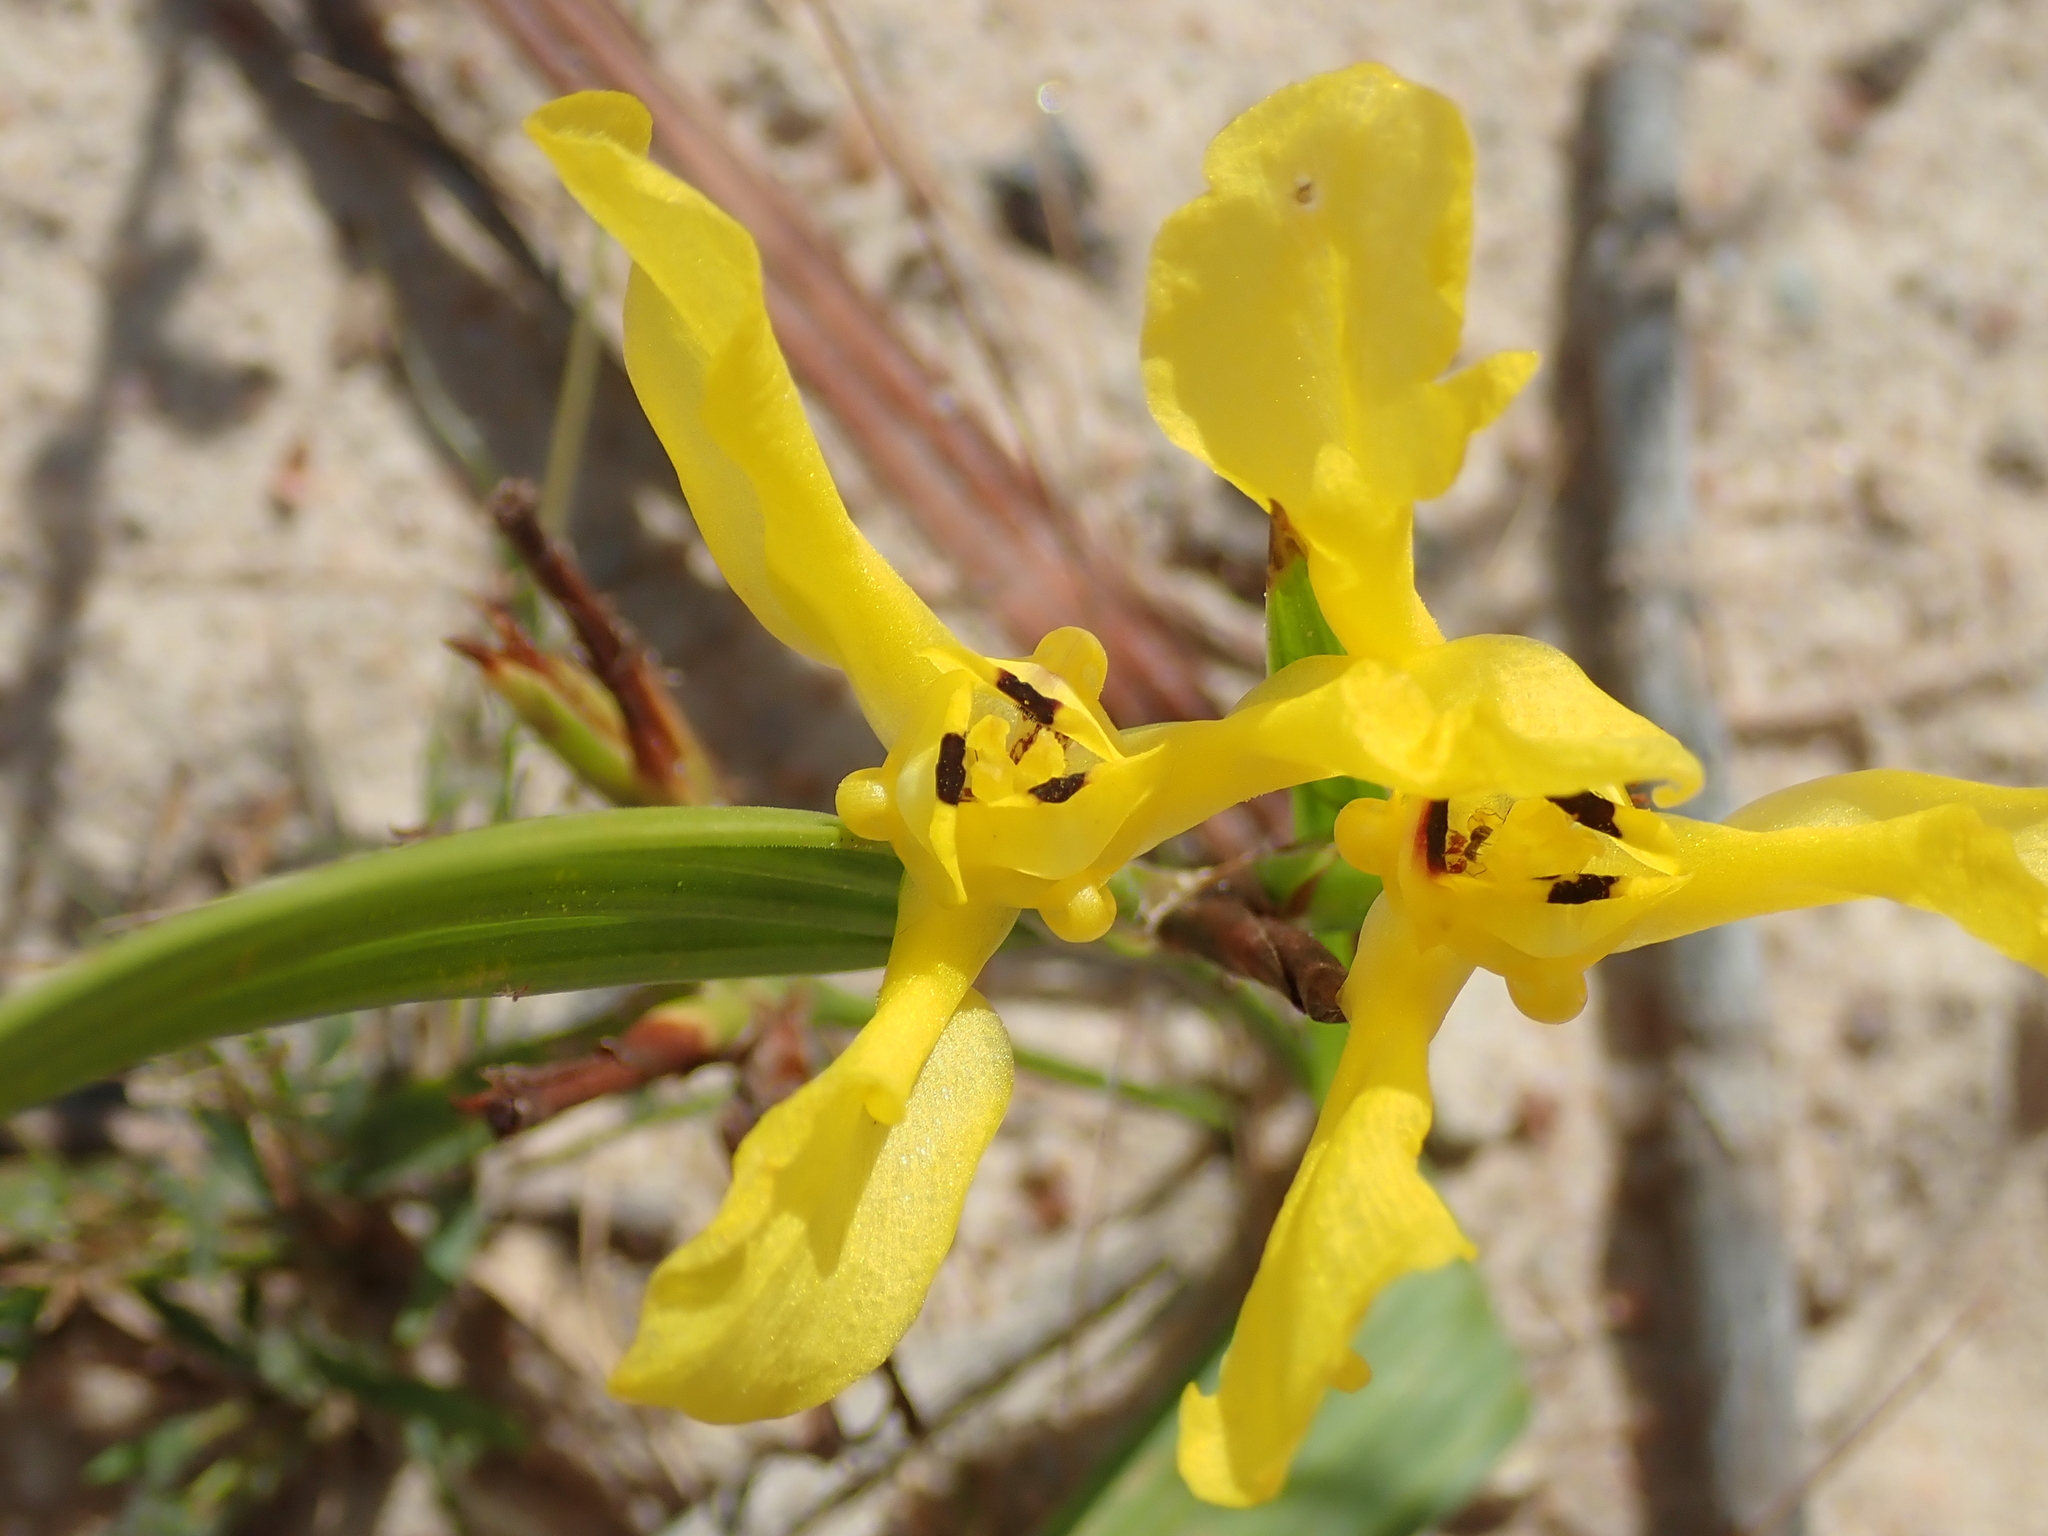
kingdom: Plantae
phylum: Tracheophyta
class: Liliopsida
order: Asparagales
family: Iridaceae
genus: Cipura
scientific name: Cipura xanthomelas
